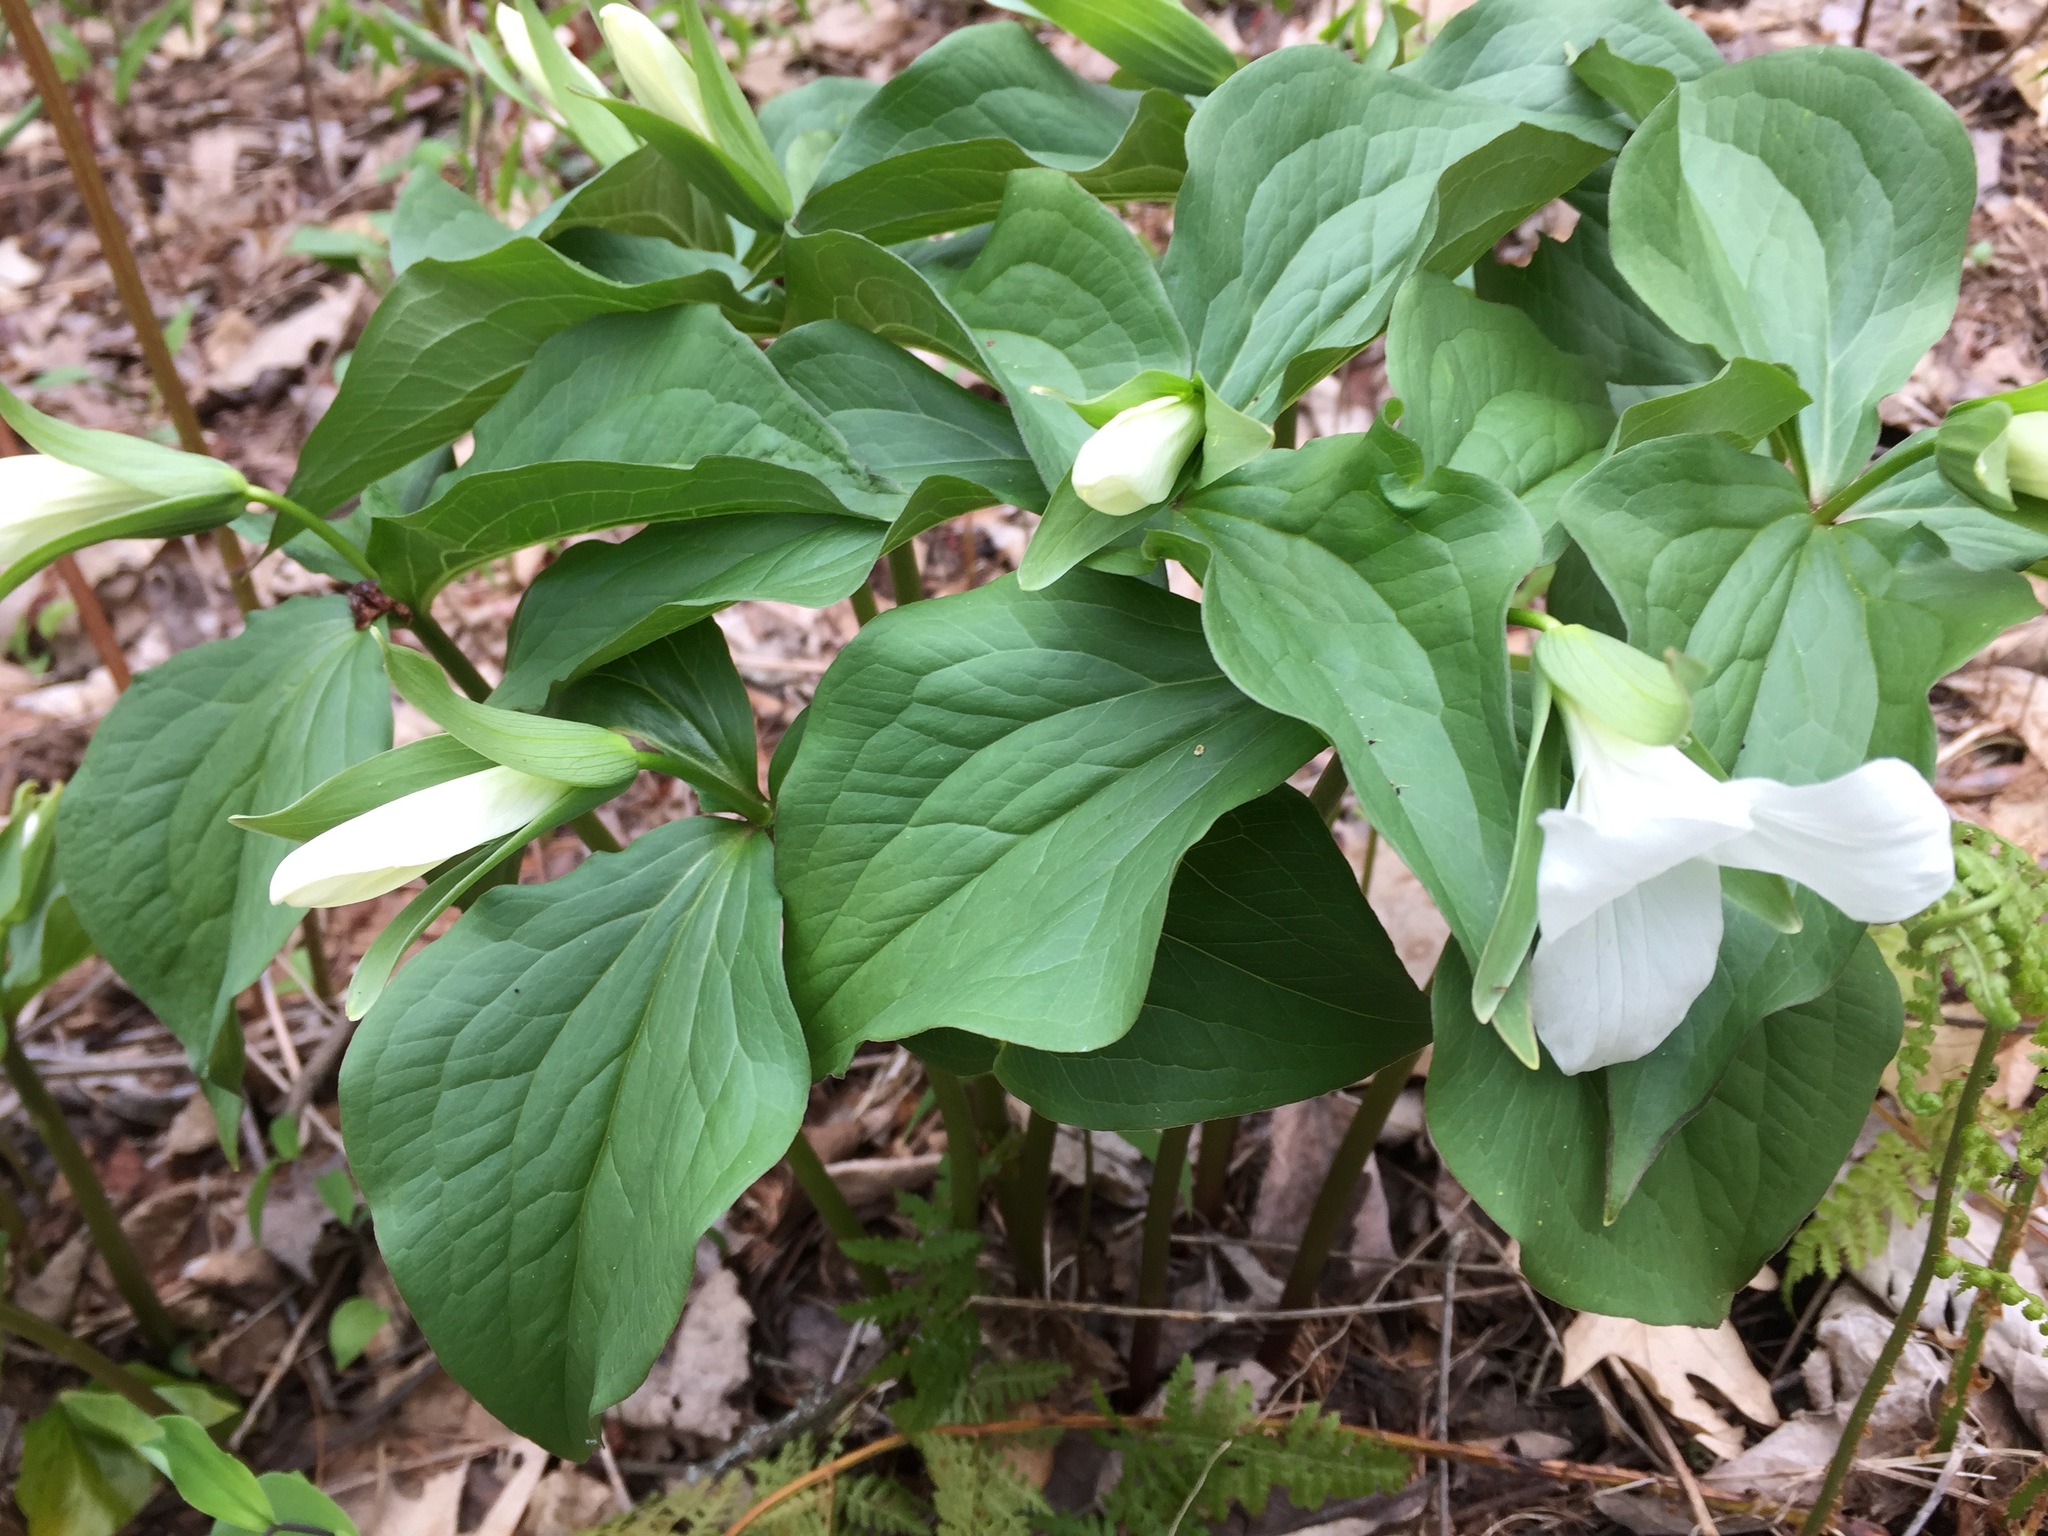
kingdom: Plantae
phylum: Tracheophyta
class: Liliopsida
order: Liliales
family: Melanthiaceae
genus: Trillium
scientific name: Trillium grandiflorum
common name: Great white trillium
